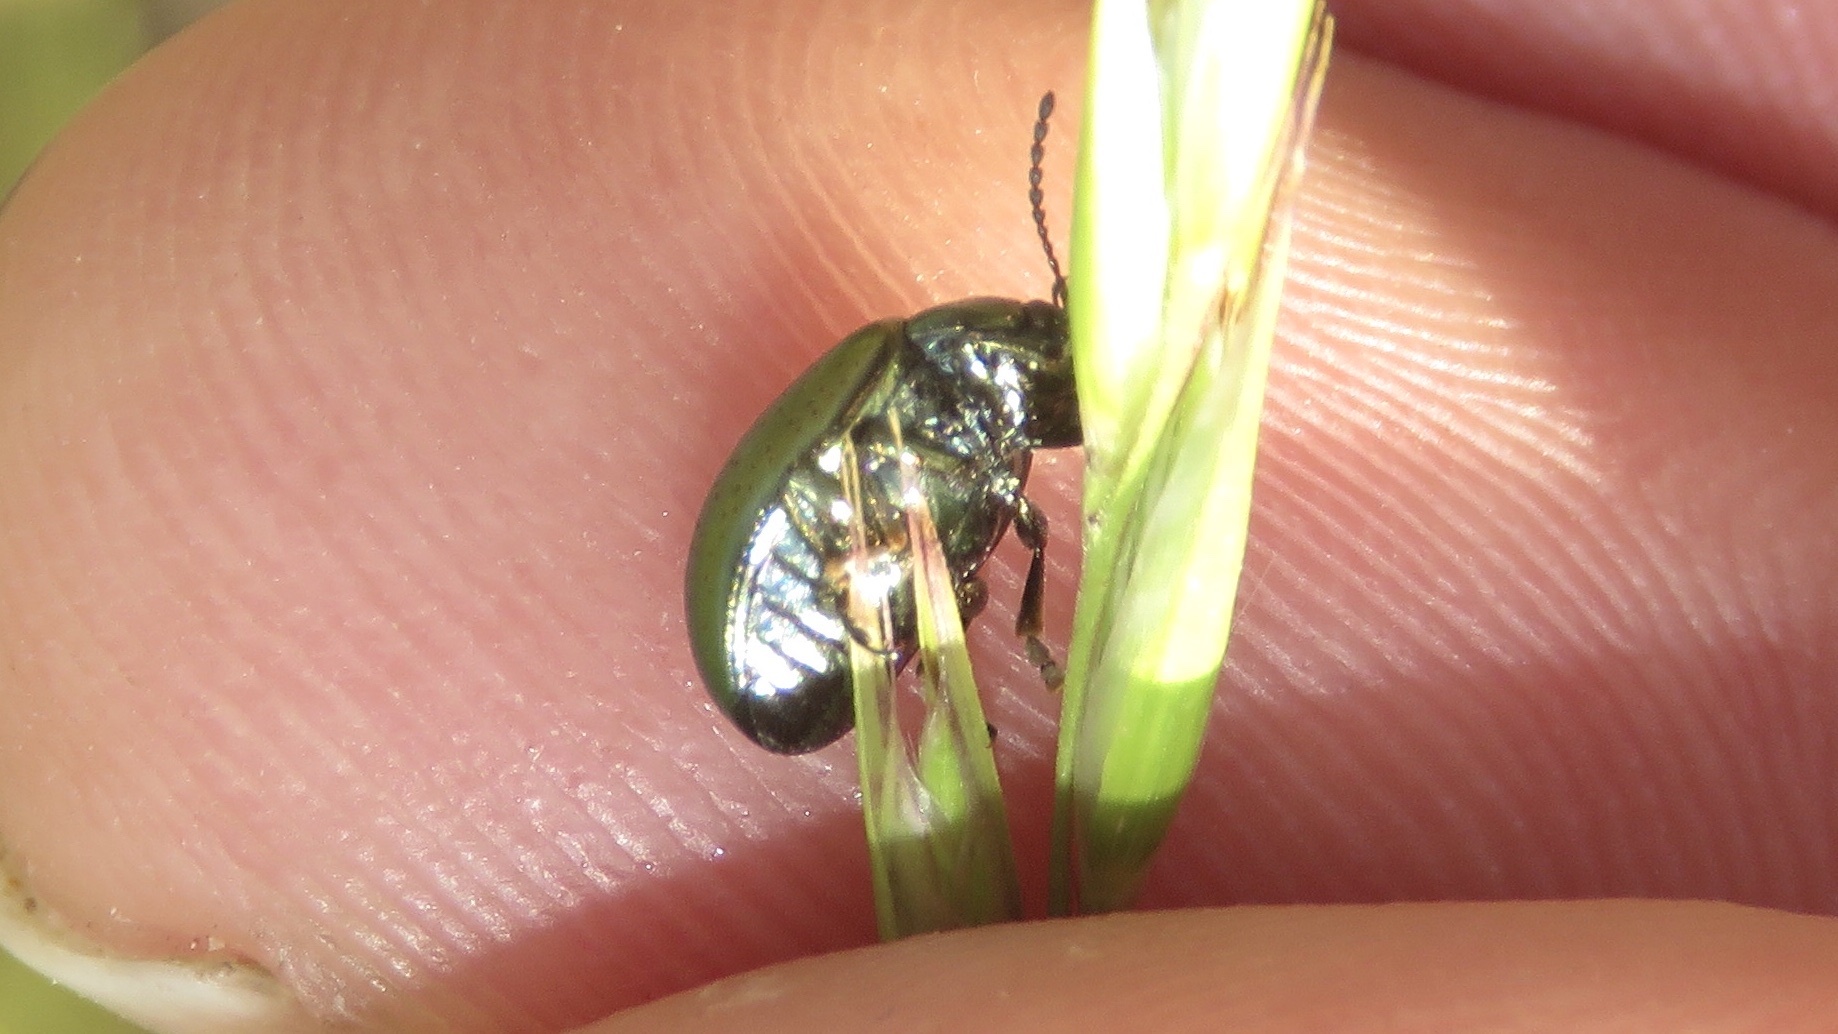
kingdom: Animalia
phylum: Arthropoda
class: Insecta
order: Coleoptera
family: Chrysomelidae
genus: Chrysolina
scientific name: Chrysolina hyperici
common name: St. johnswort beetle
